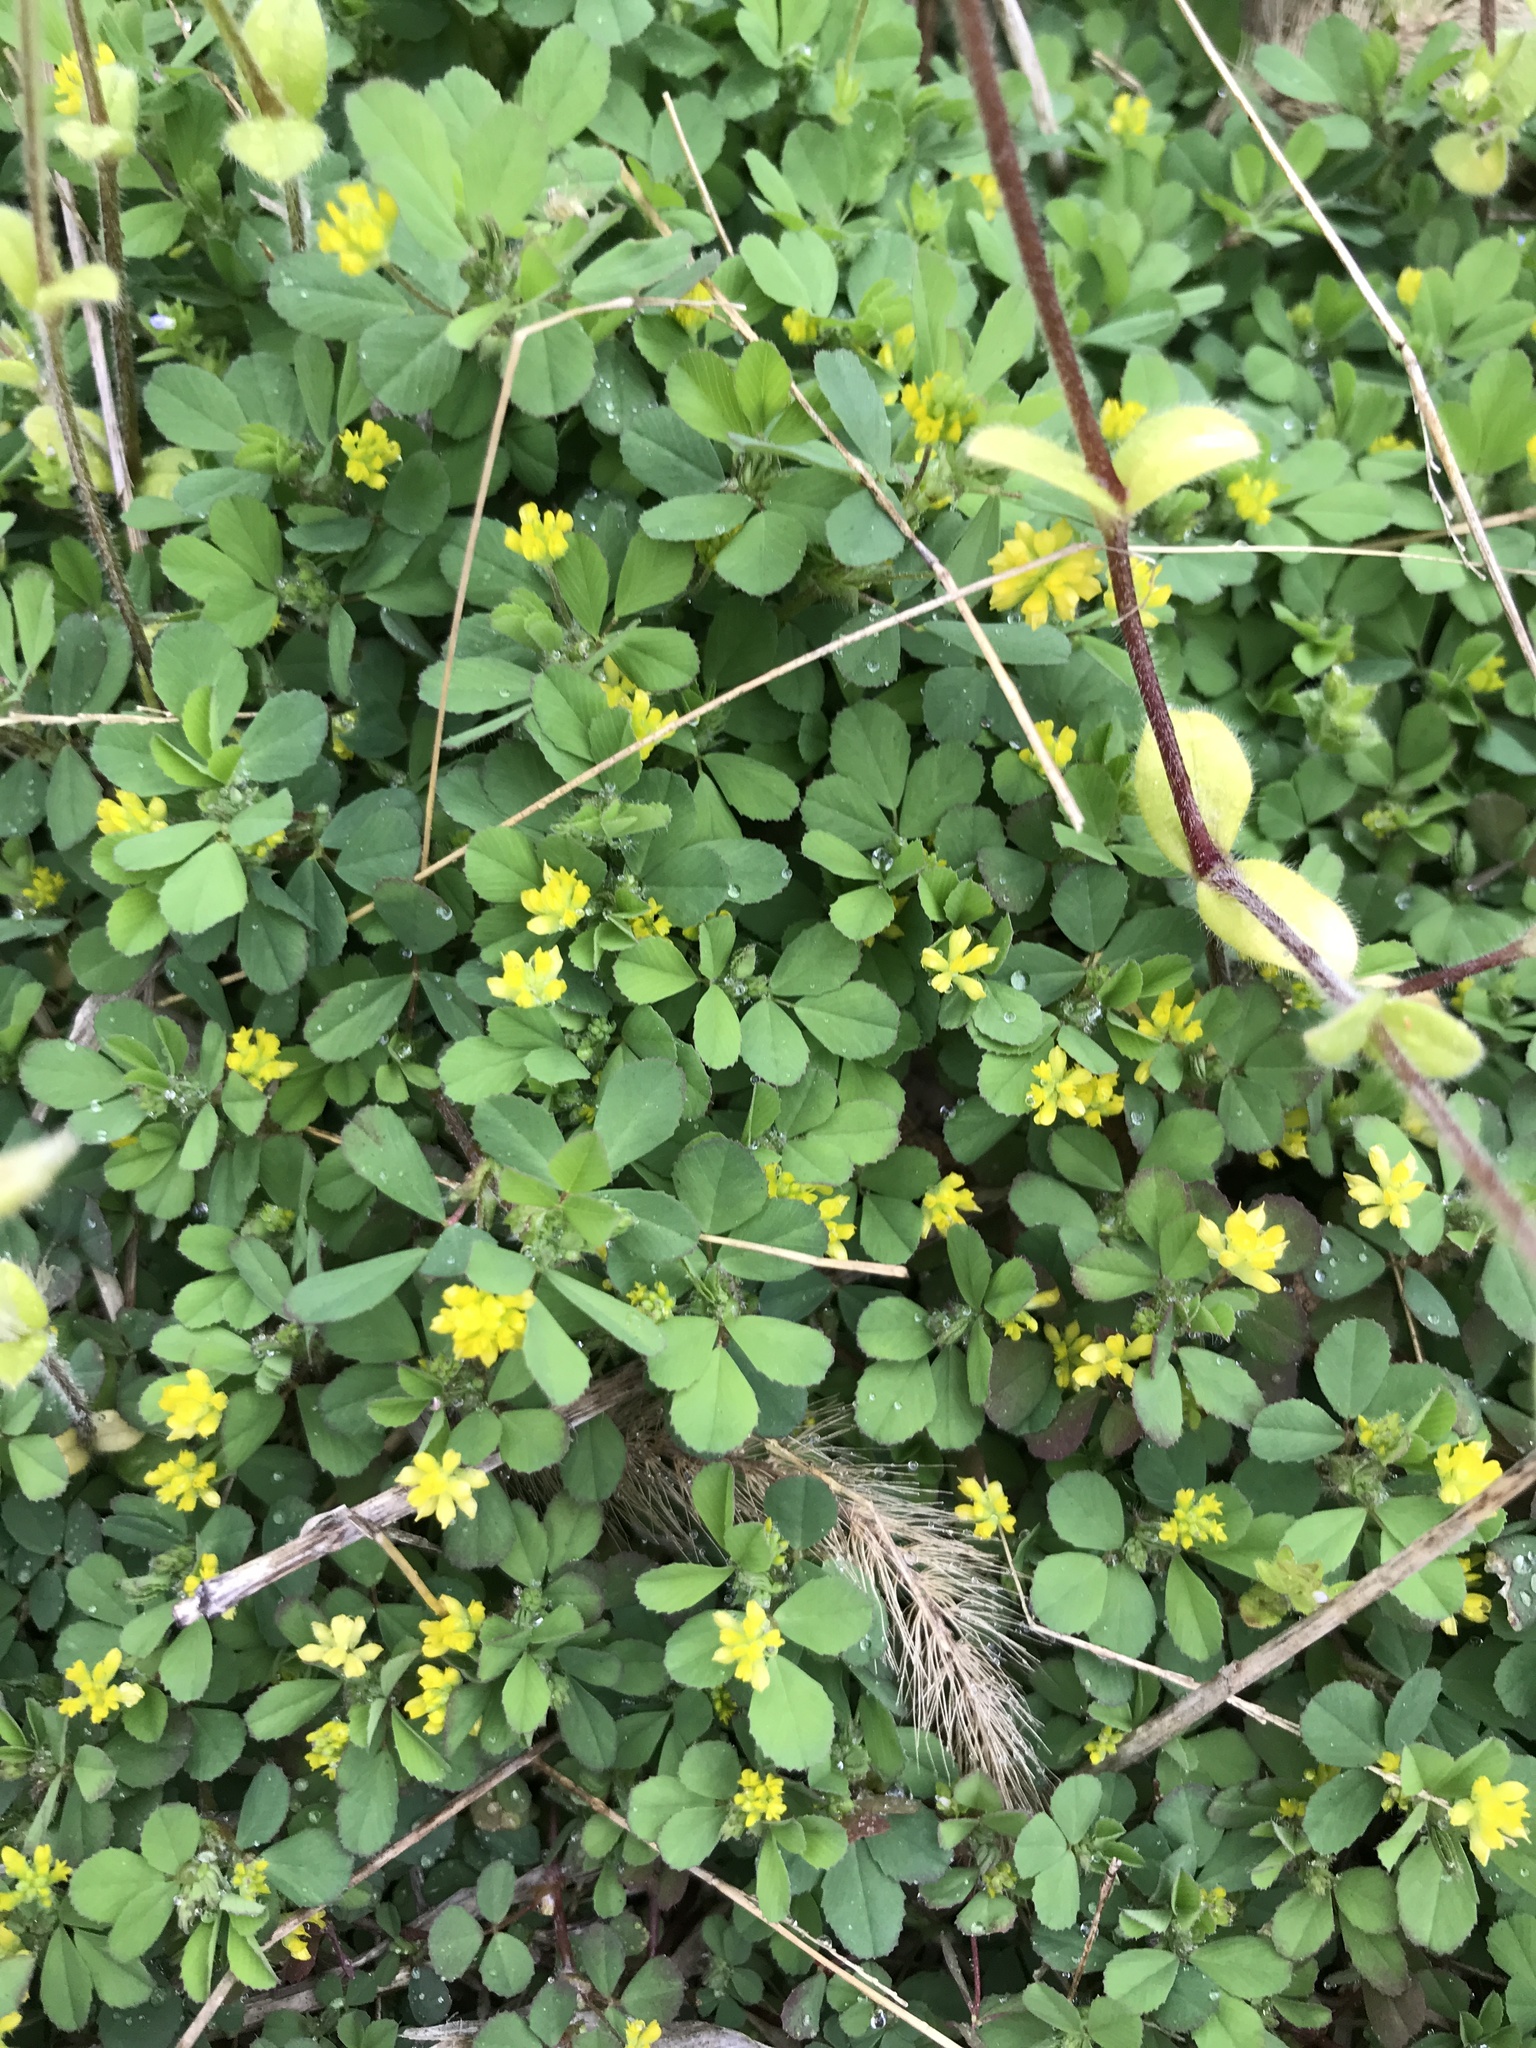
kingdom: Plantae
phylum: Tracheophyta
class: Magnoliopsida
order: Fabales
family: Fabaceae
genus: Trifolium
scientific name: Trifolium dubium
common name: Suckling clover
